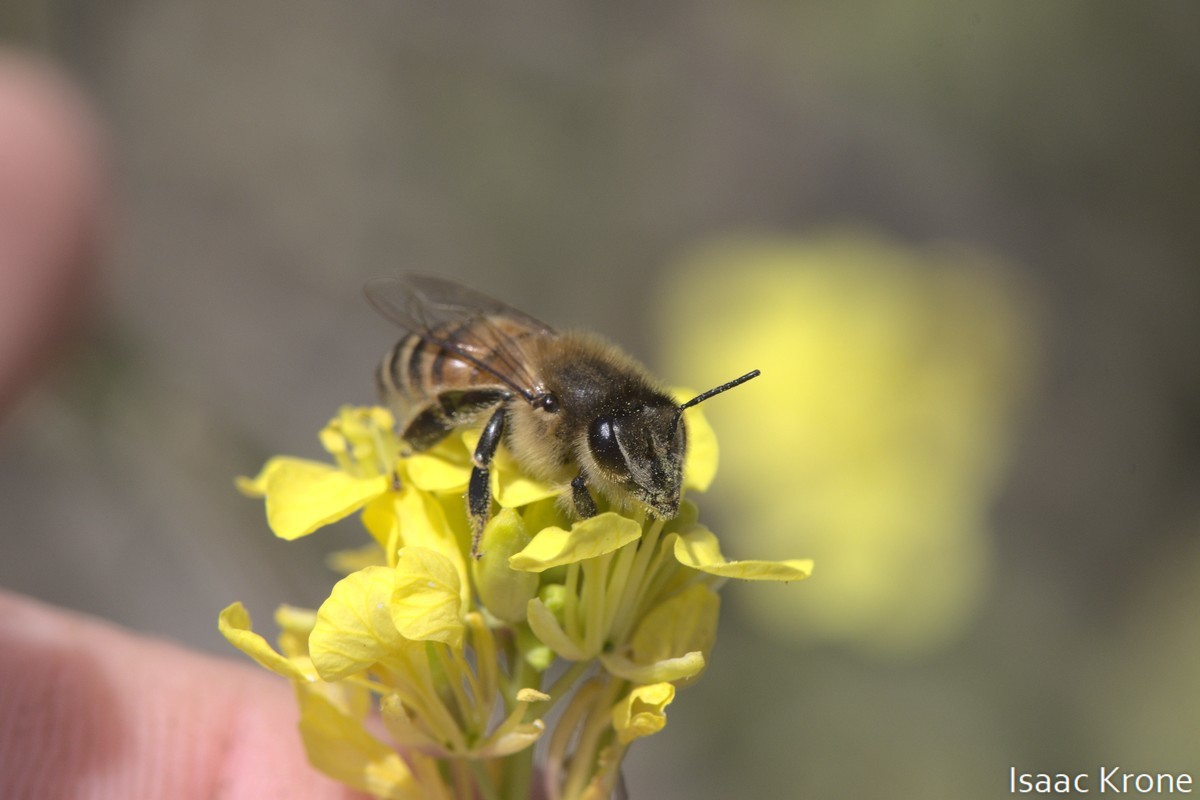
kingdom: Animalia
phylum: Arthropoda
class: Insecta
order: Hymenoptera
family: Apidae
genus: Apis
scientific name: Apis mellifera
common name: Honey bee
